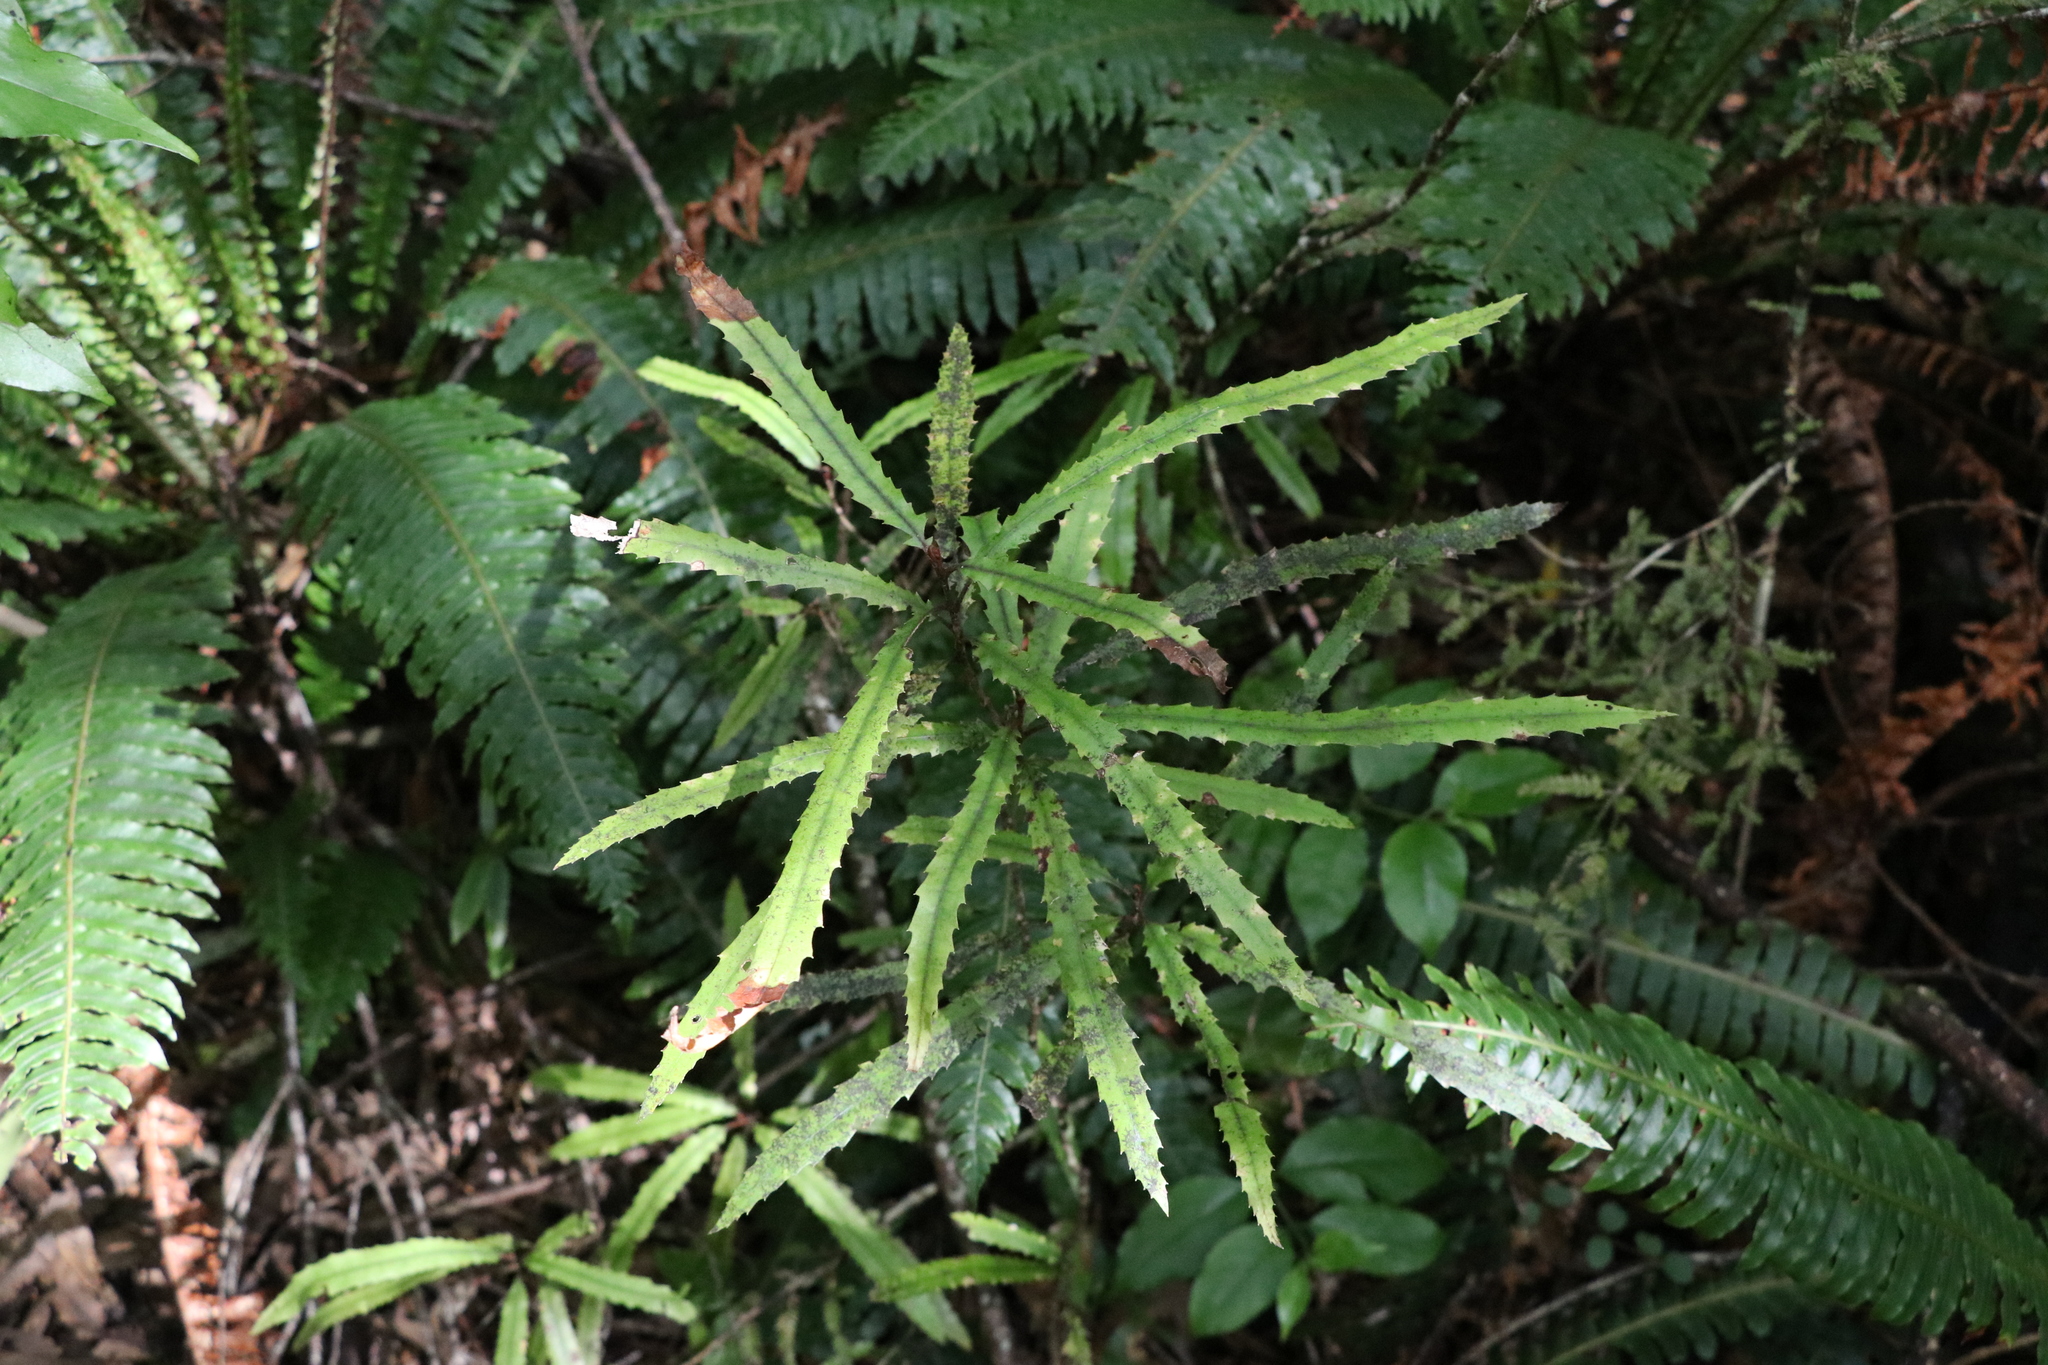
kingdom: Plantae
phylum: Tracheophyta
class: Magnoliopsida
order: Proteales
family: Proteaceae
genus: Knightia
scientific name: Knightia excelsa
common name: New zealand-honeysuckle
